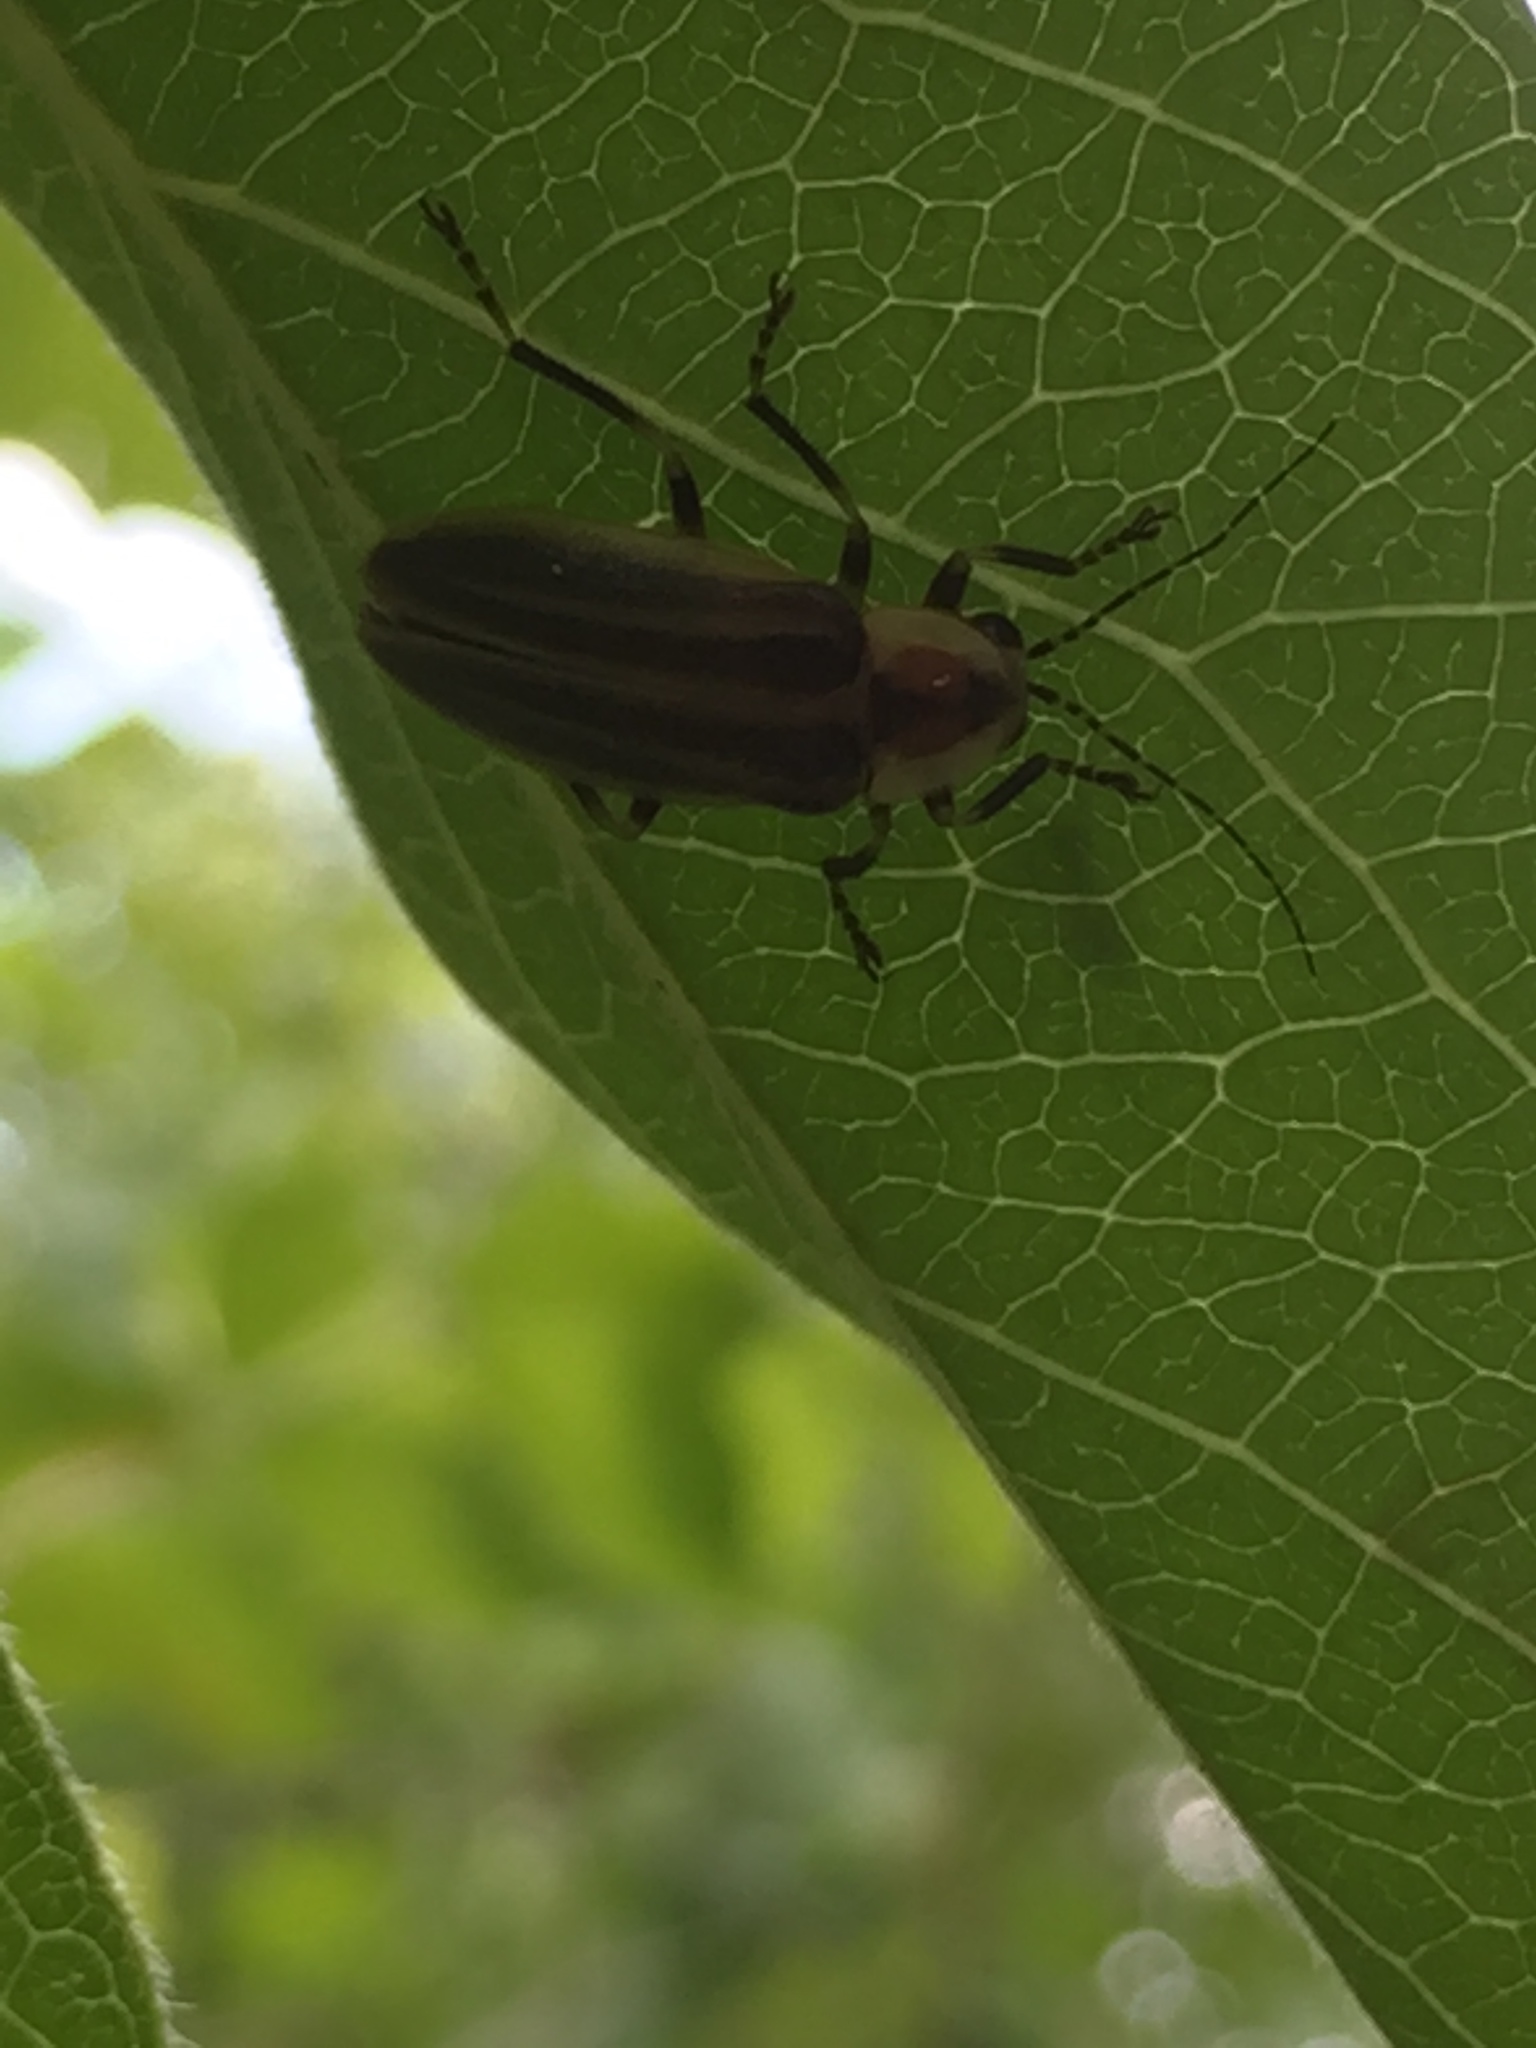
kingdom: Animalia
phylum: Arthropoda
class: Insecta
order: Coleoptera
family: Lampyridae
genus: Photuris
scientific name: Photuris
